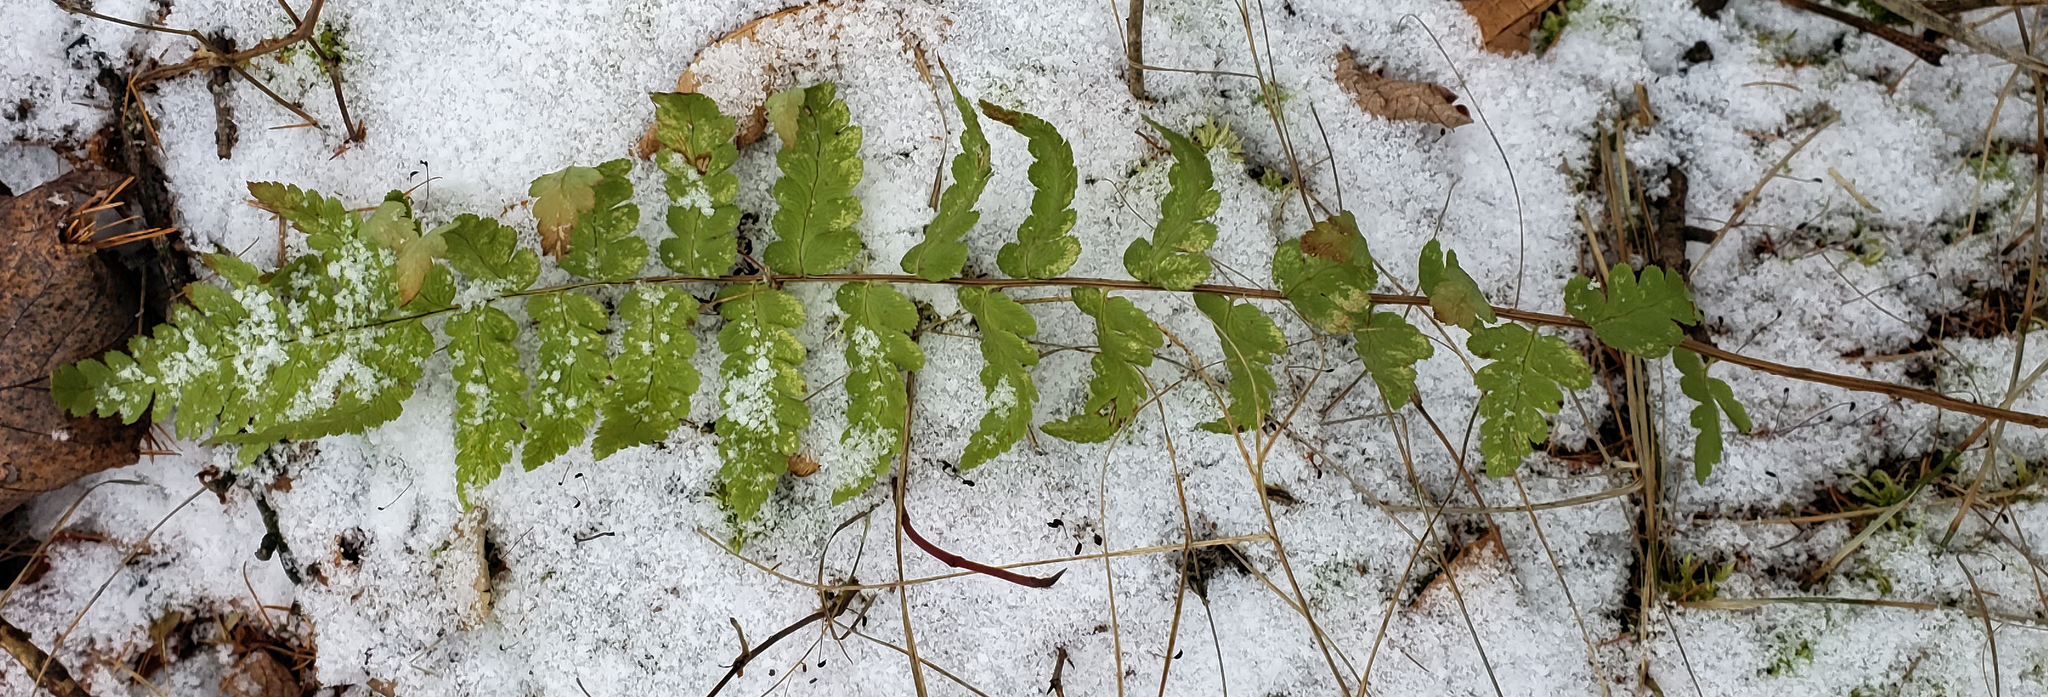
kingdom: Plantae
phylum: Tracheophyta
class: Polypodiopsida
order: Polypodiales
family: Dryopteridaceae
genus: Dryopteris
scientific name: Dryopteris cristata
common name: Crested wood fern
